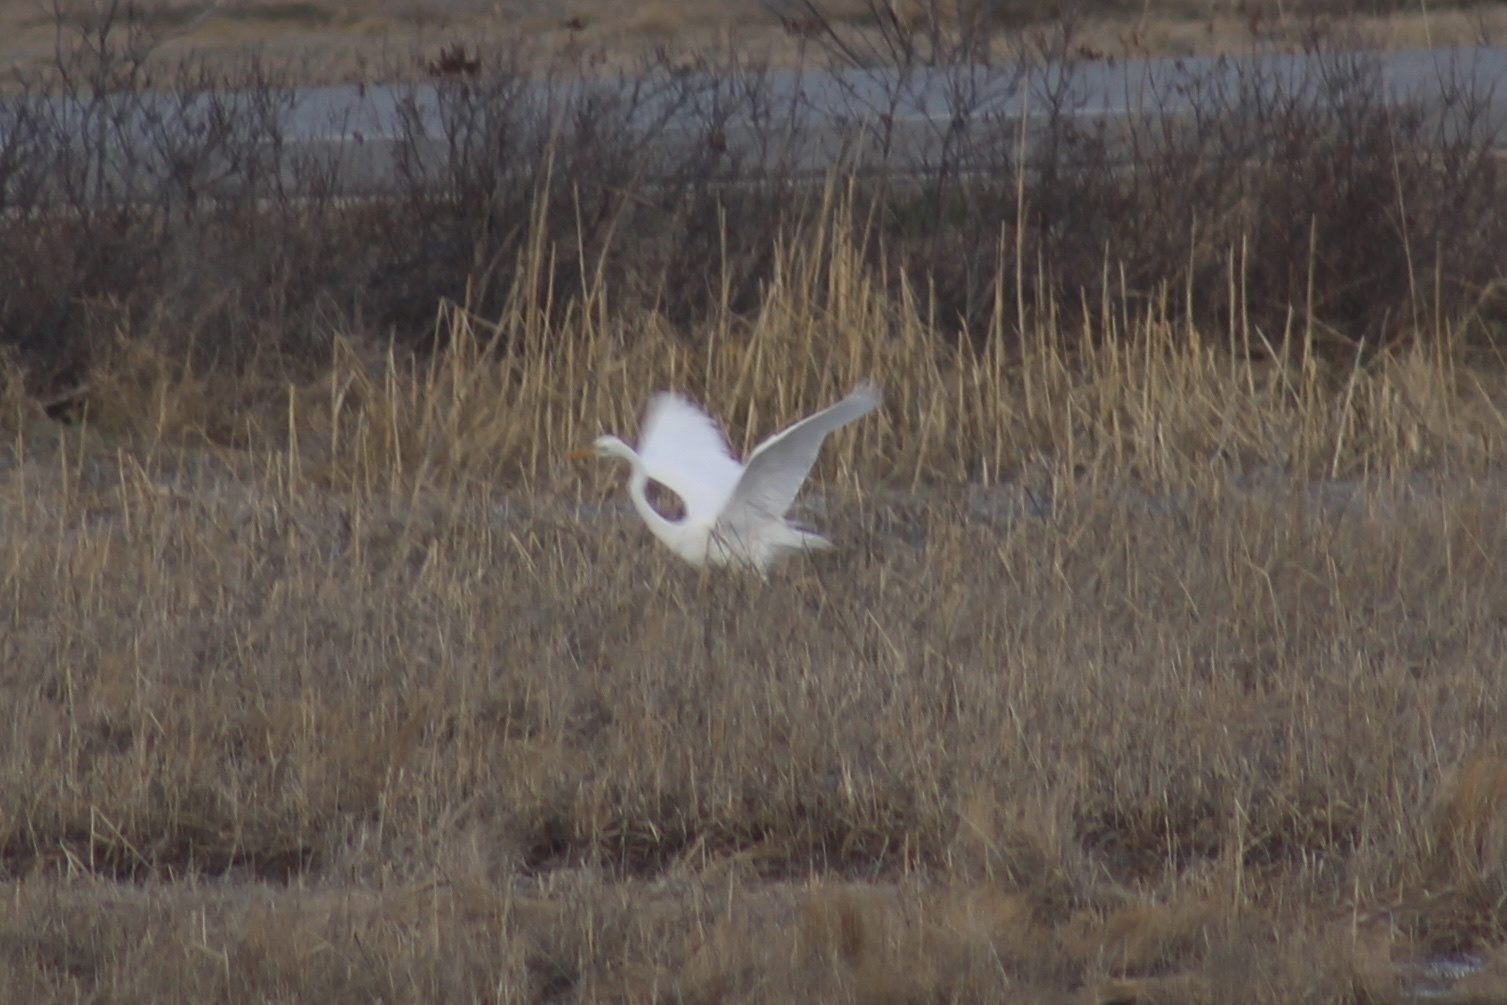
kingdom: Animalia
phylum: Chordata
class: Aves
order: Pelecaniformes
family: Ardeidae
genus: Ardea
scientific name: Ardea alba
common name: Great egret
